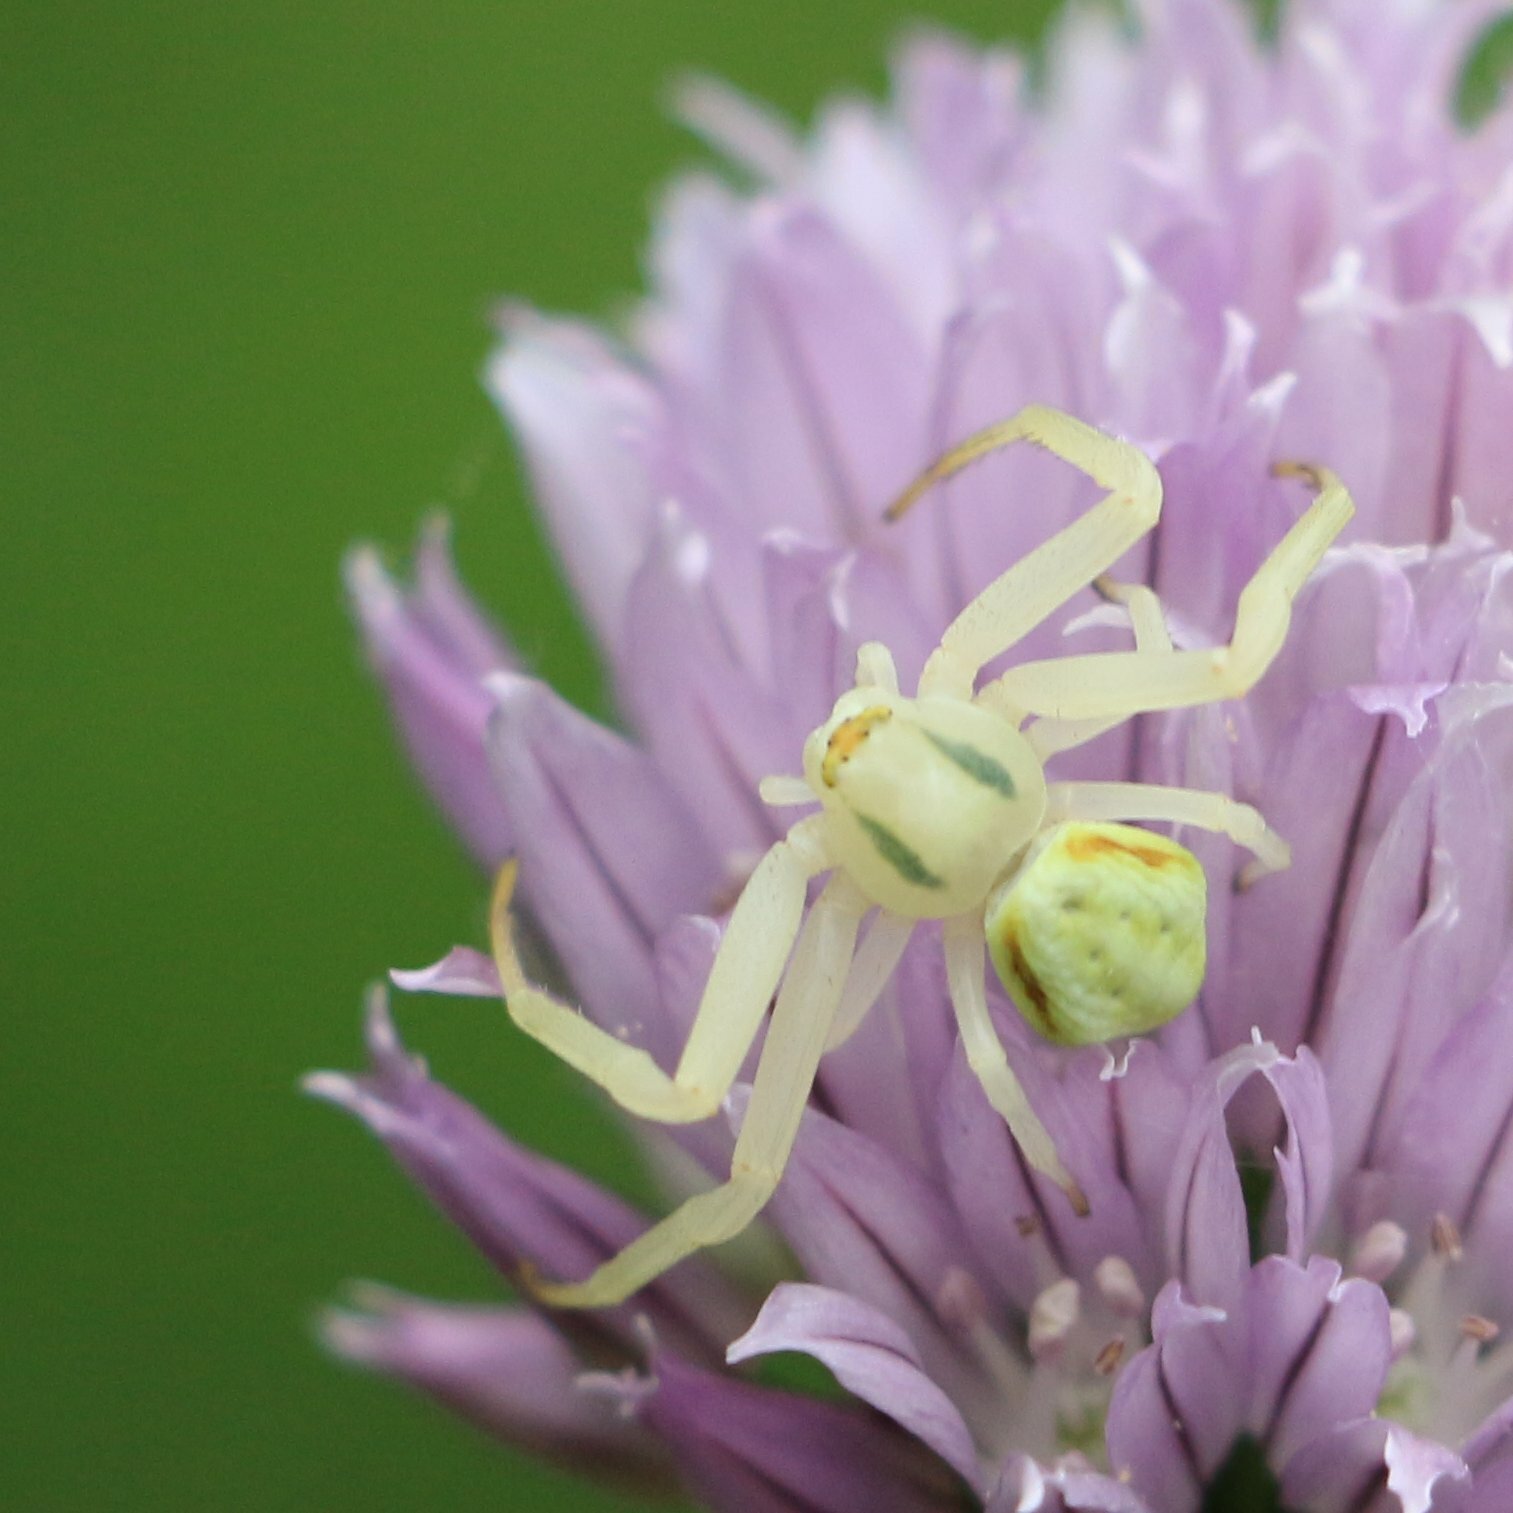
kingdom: Animalia
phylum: Arthropoda
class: Arachnida
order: Araneae
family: Thomisidae
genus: Misumena
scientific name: Misumena vatia
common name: Goldenrod crab spider
